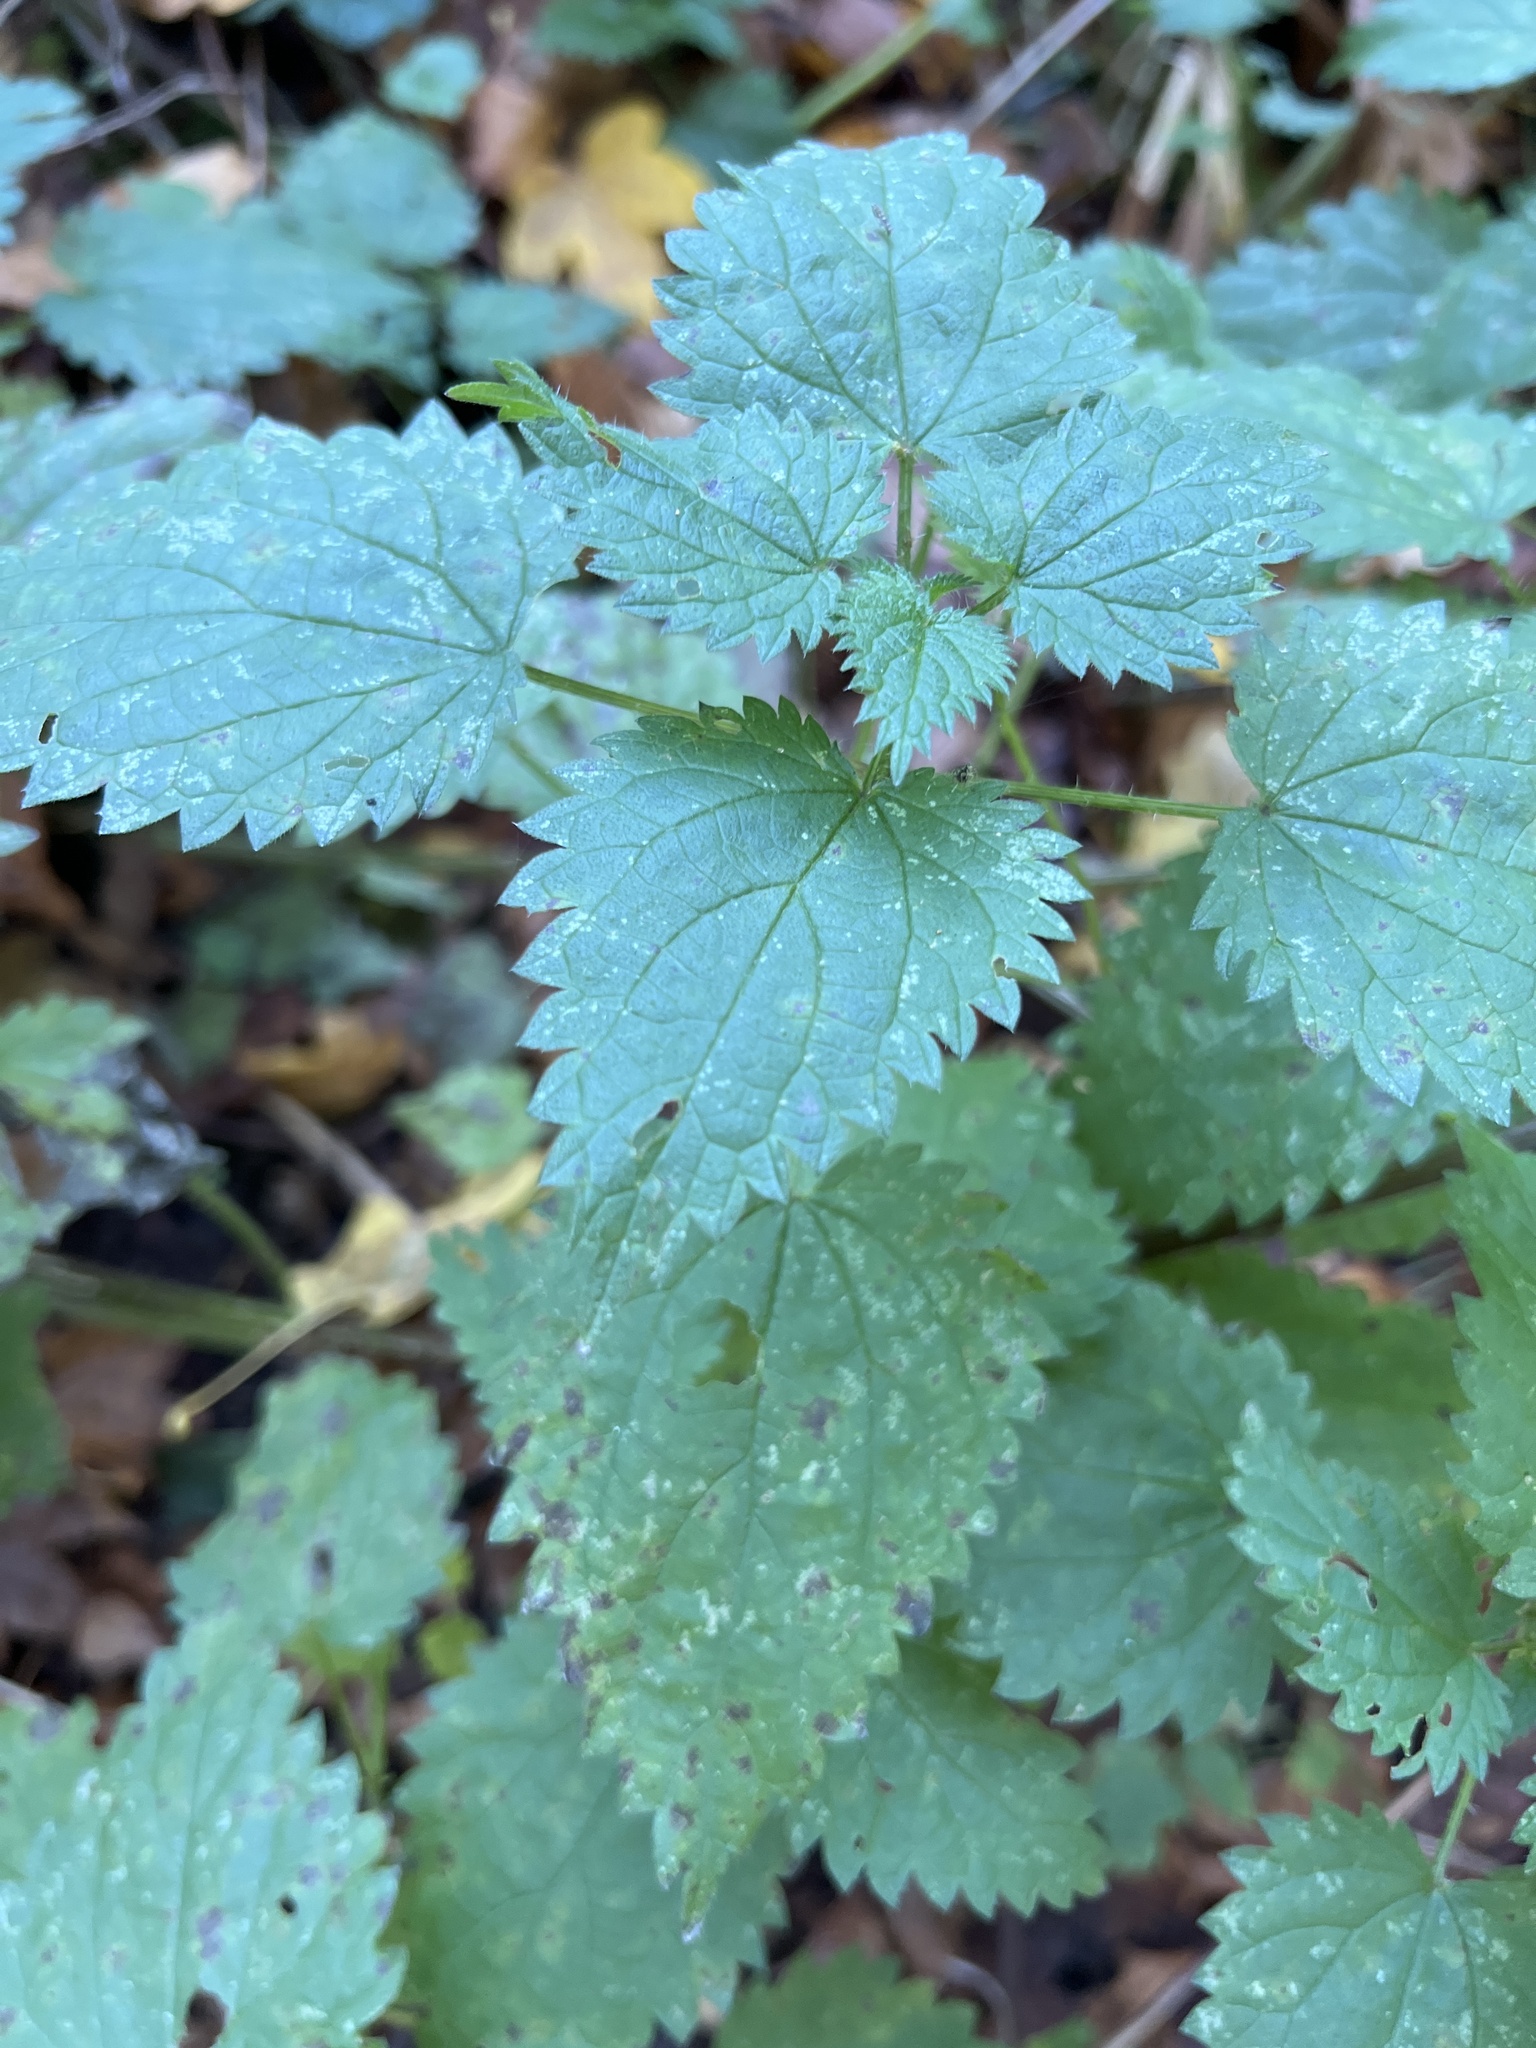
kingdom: Plantae
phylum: Tracheophyta
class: Magnoliopsida
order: Rosales
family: Urticaceae
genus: Urtica
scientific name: Urtica dioica
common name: Common nettle
